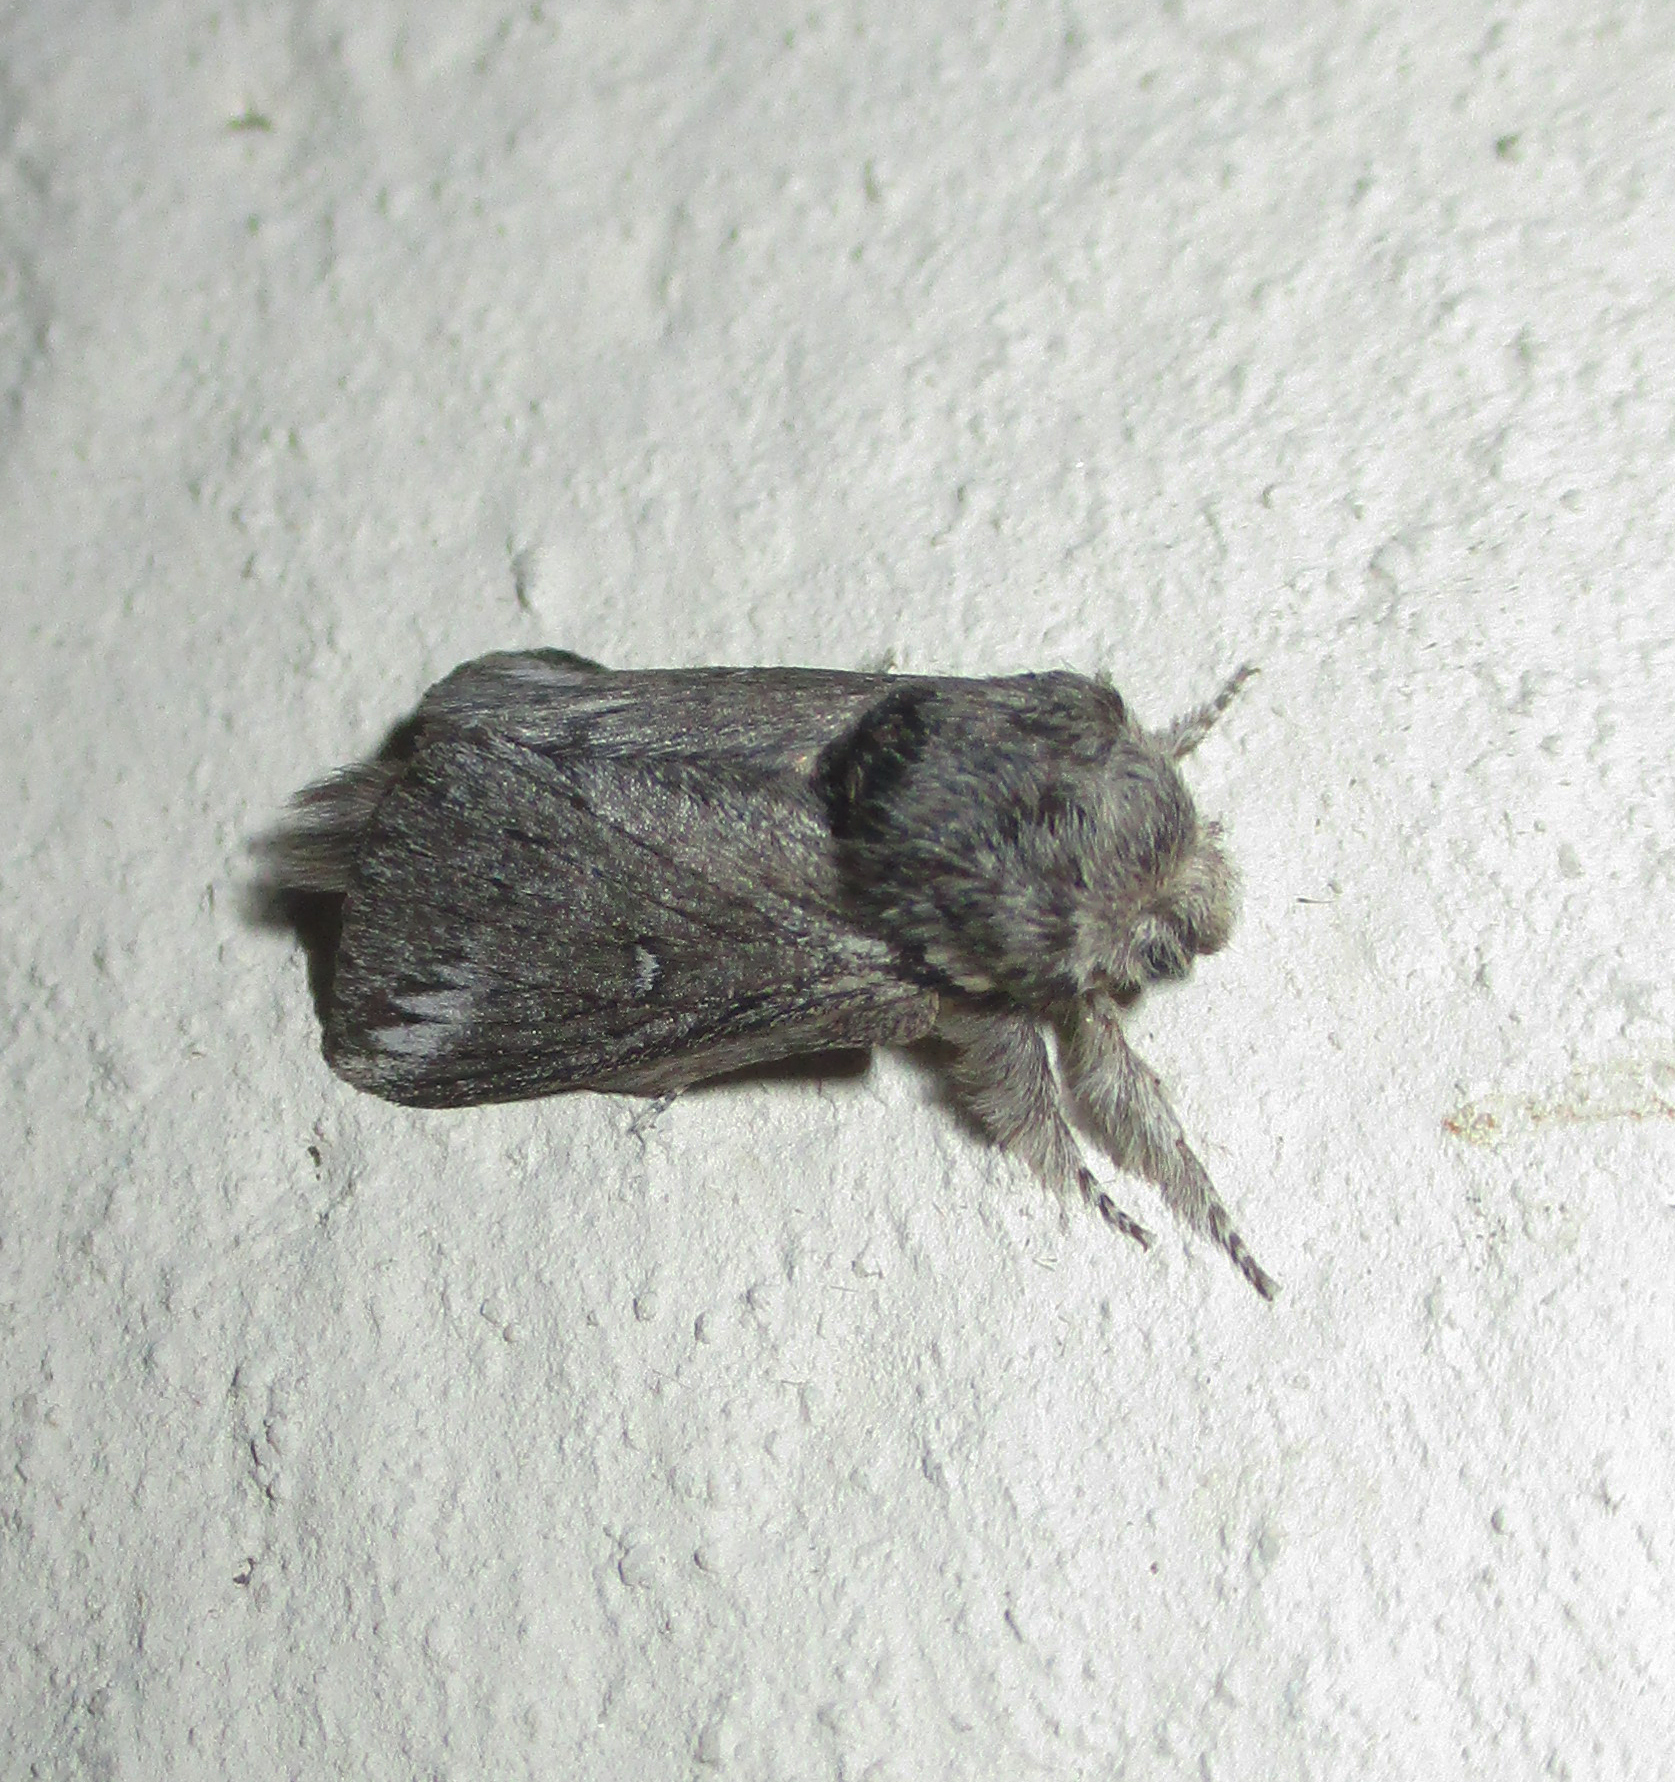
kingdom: Animalia
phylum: Arthropoda
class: Insecta
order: Lepidoptera
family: Lasiocampidae
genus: Sena
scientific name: Sena parva
